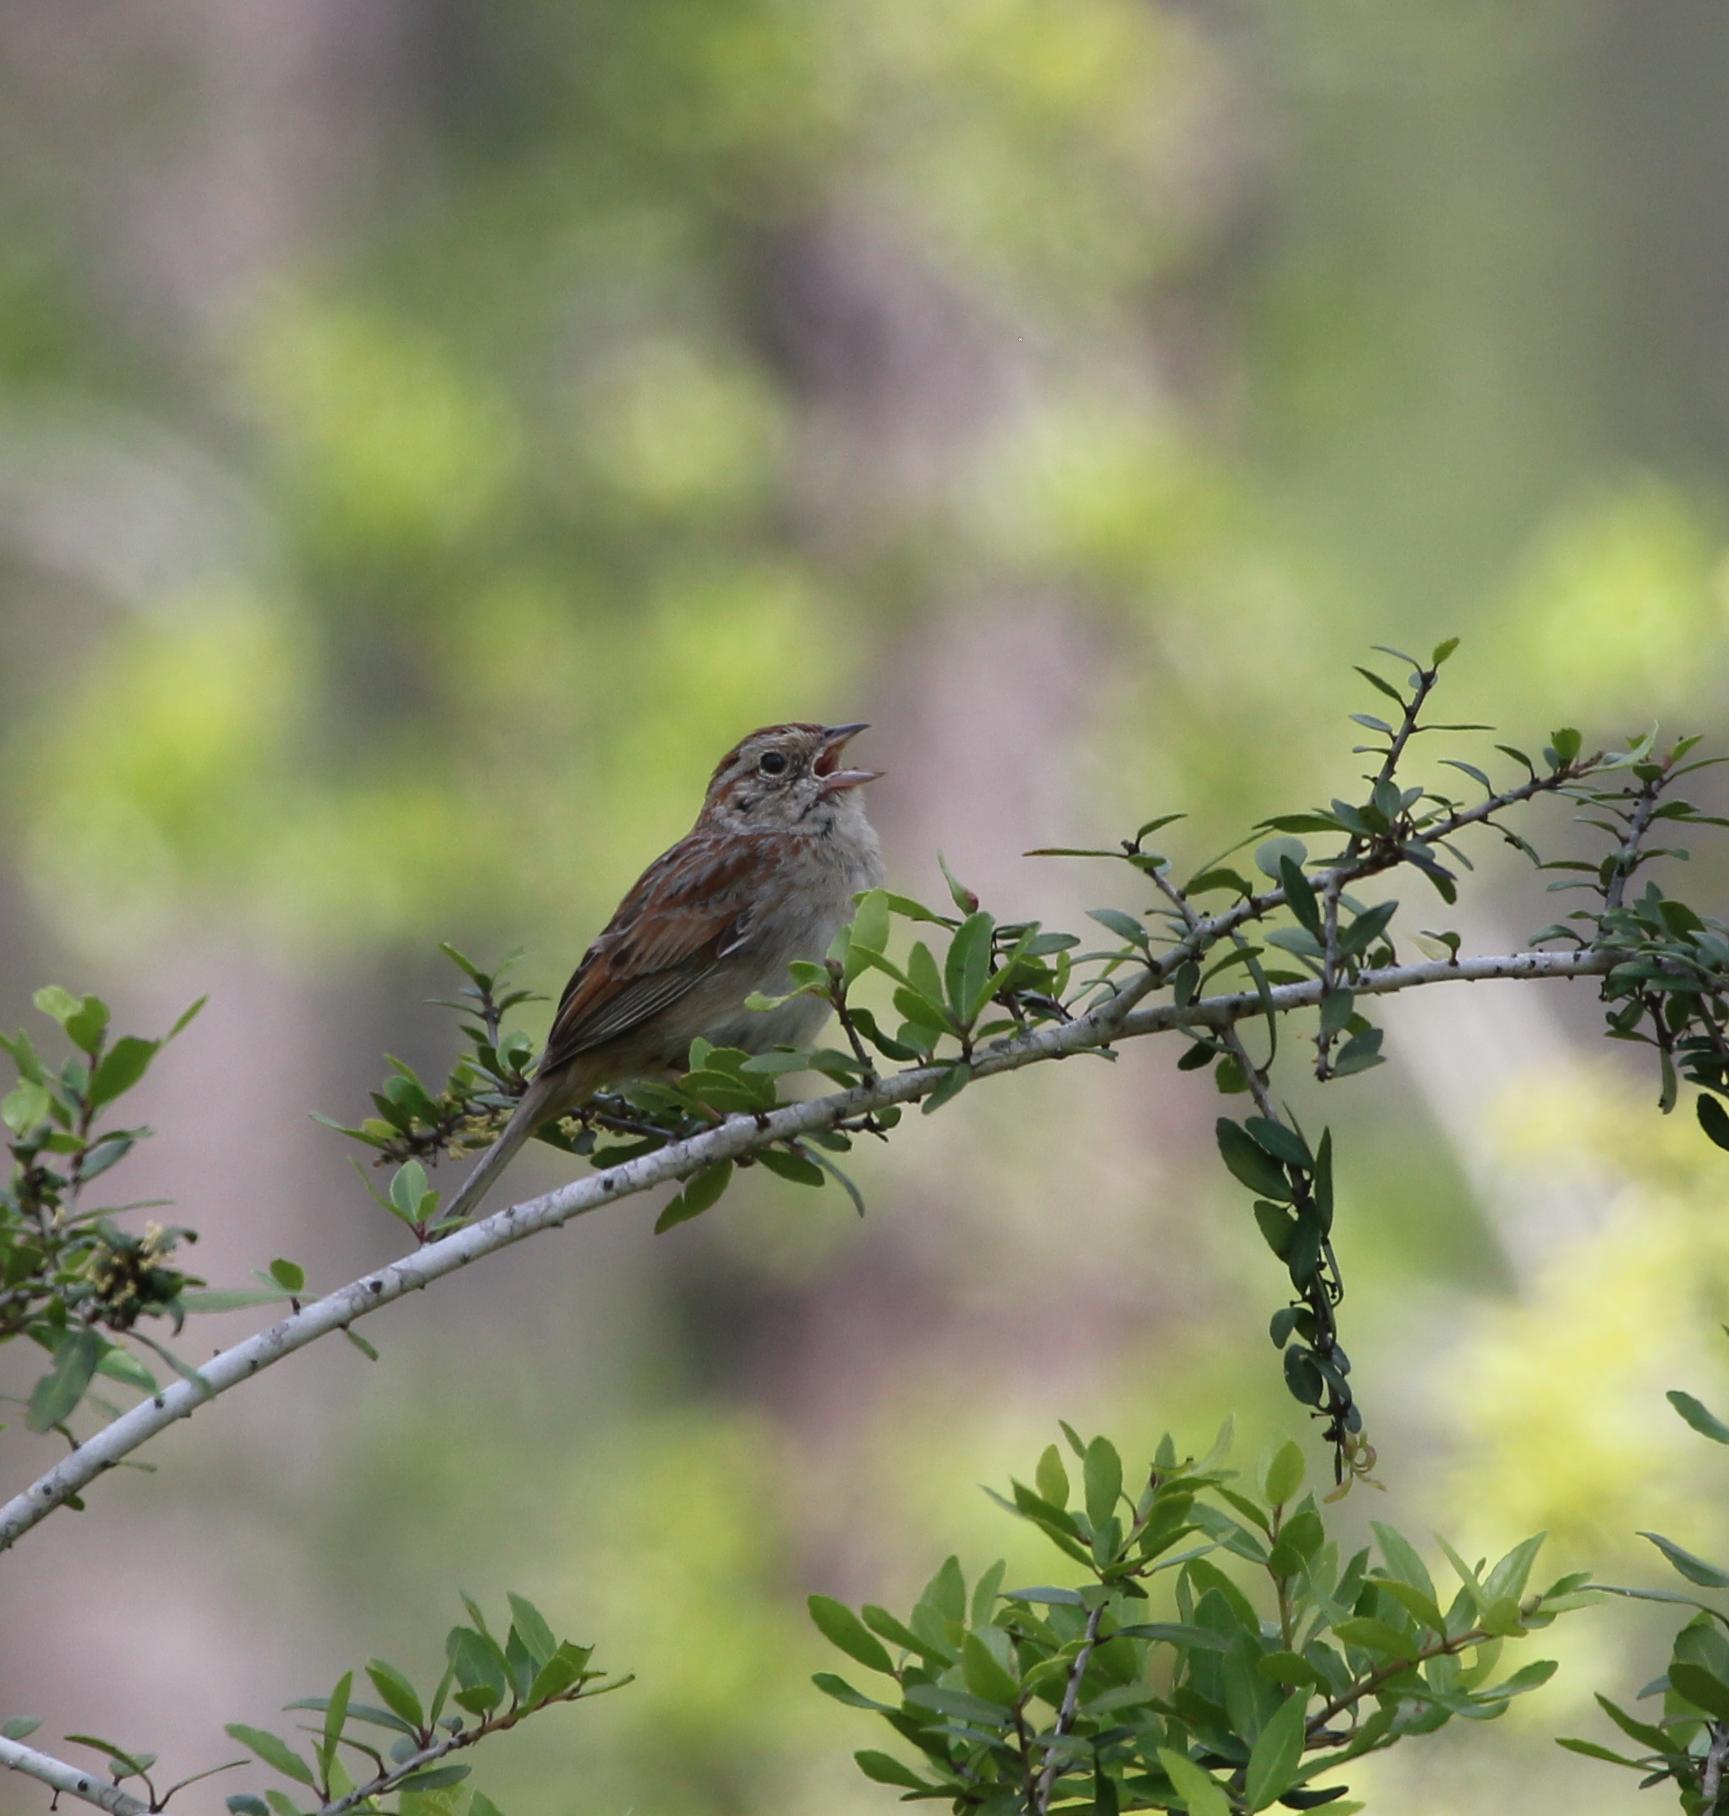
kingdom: Animalia
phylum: Chordata
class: Aves
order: Passeriformes
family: Passerellidae
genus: Peucaea
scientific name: Peucaea aestivalis
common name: Bachman's sparrow
